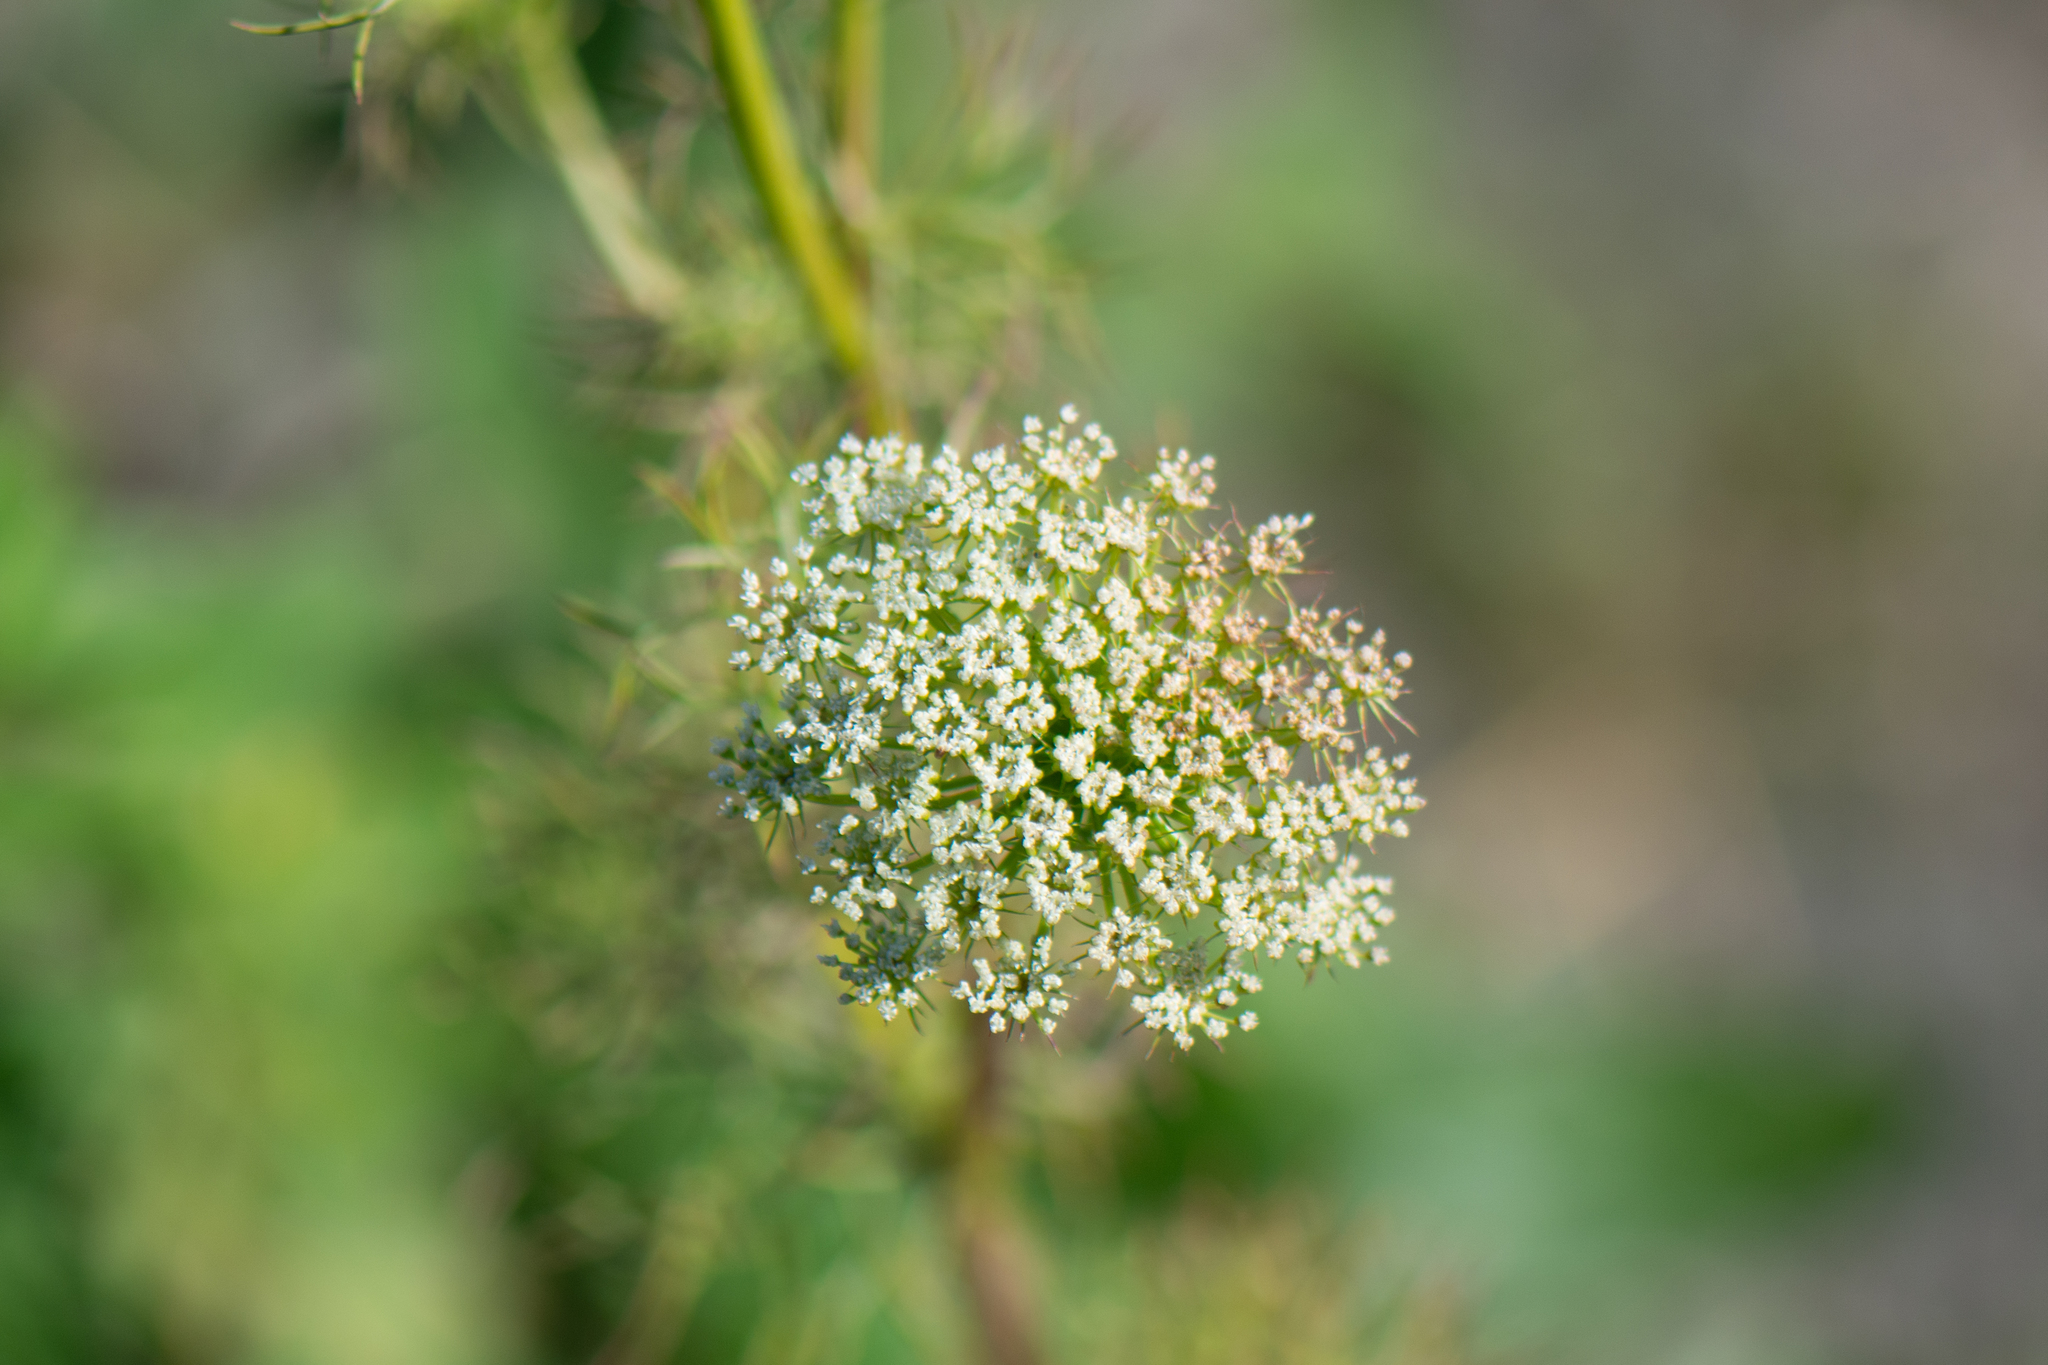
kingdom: Plantae
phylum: Tracheophyta
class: Magnoliopsida
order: Apiales
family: Apiaceae
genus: Visnaga
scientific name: Visnaga daucoides
